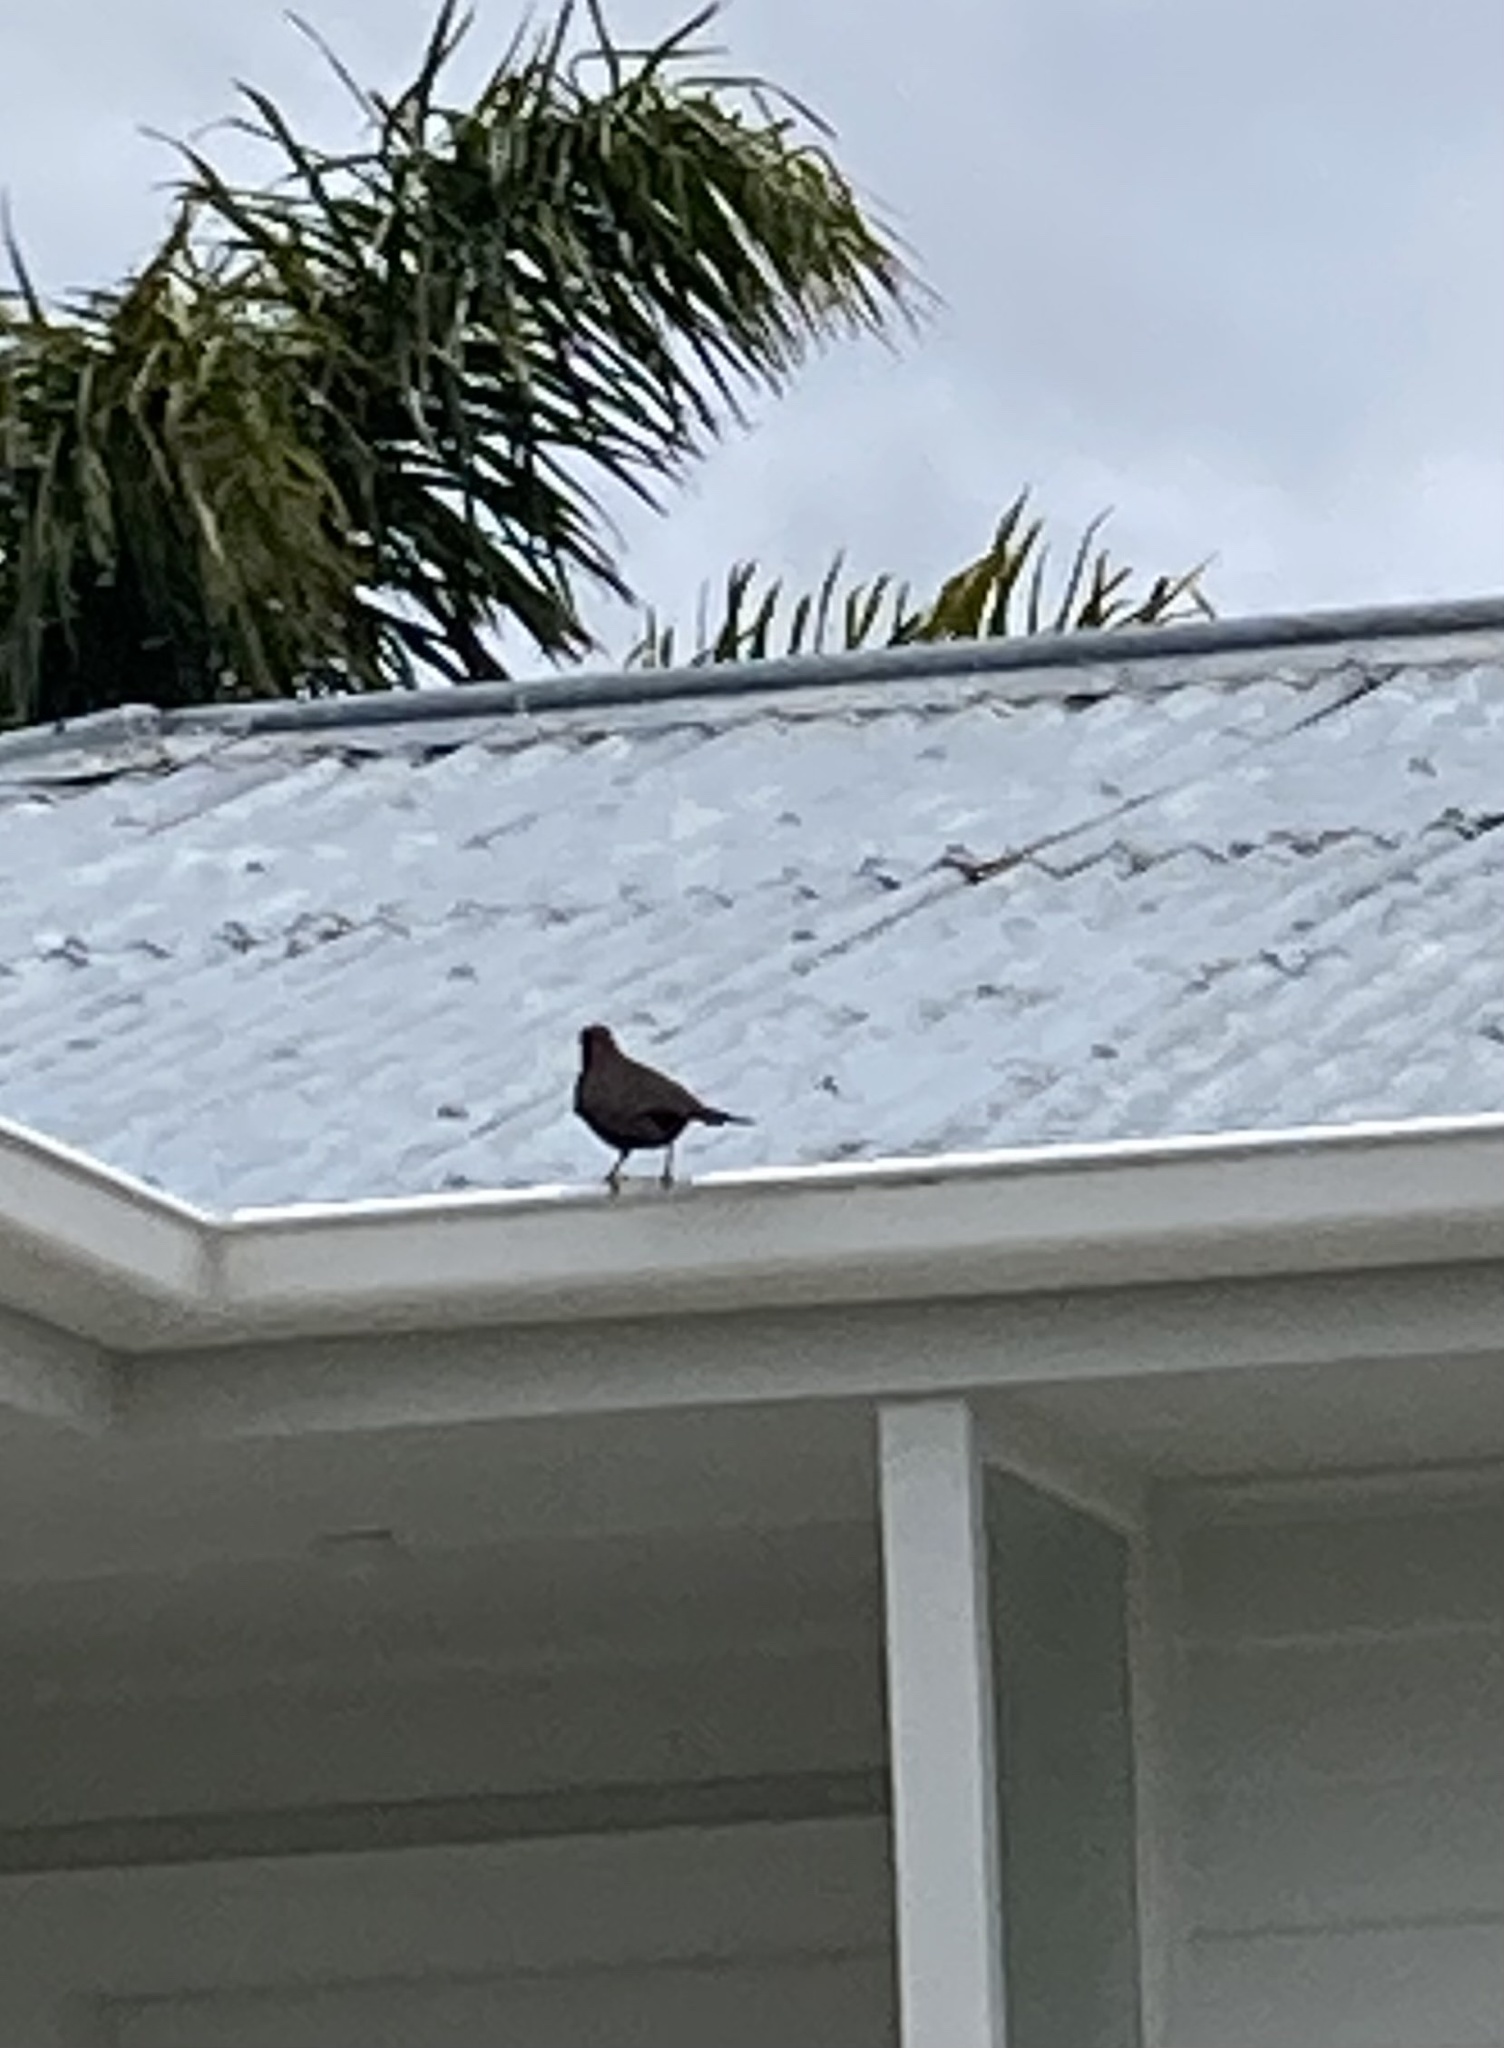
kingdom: Animalia
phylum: Chordata
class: Aves
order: Passeriformes
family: Turdidae
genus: Turdus
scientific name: Turdus merula
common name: Common blackbird
